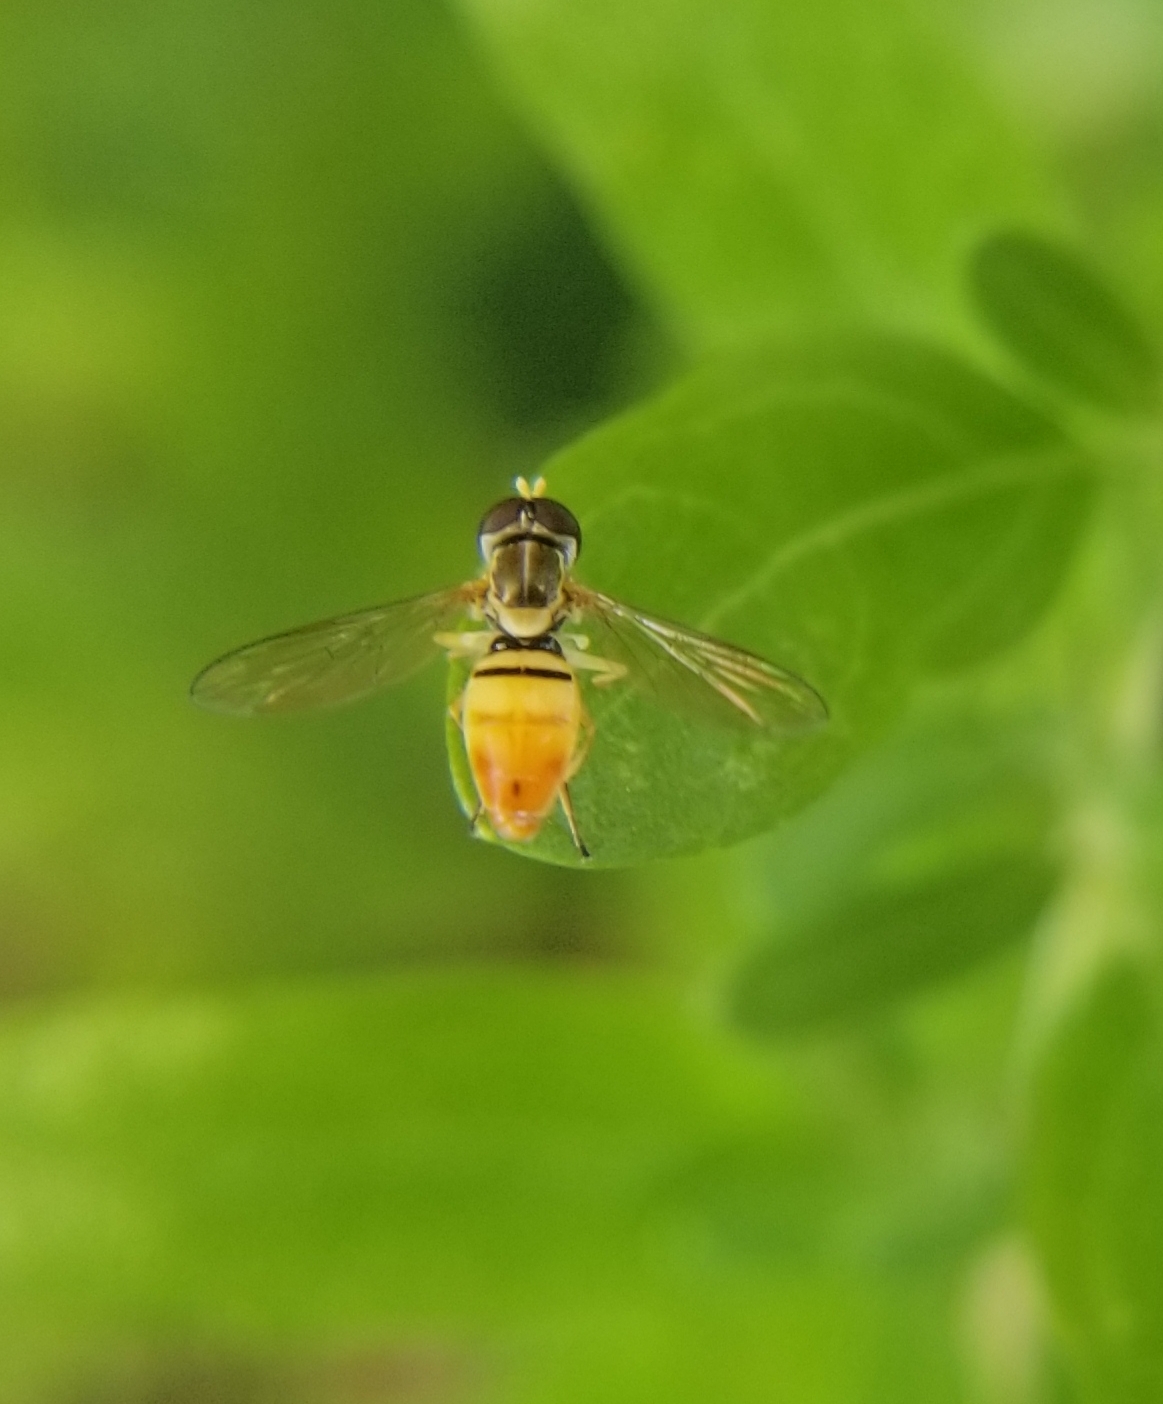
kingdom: Animalia
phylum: Arthropoda
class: Insecta
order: Diptera
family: Syrphidae
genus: Toxomerus
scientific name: Toxomerus marginatus
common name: Syrphid fly
